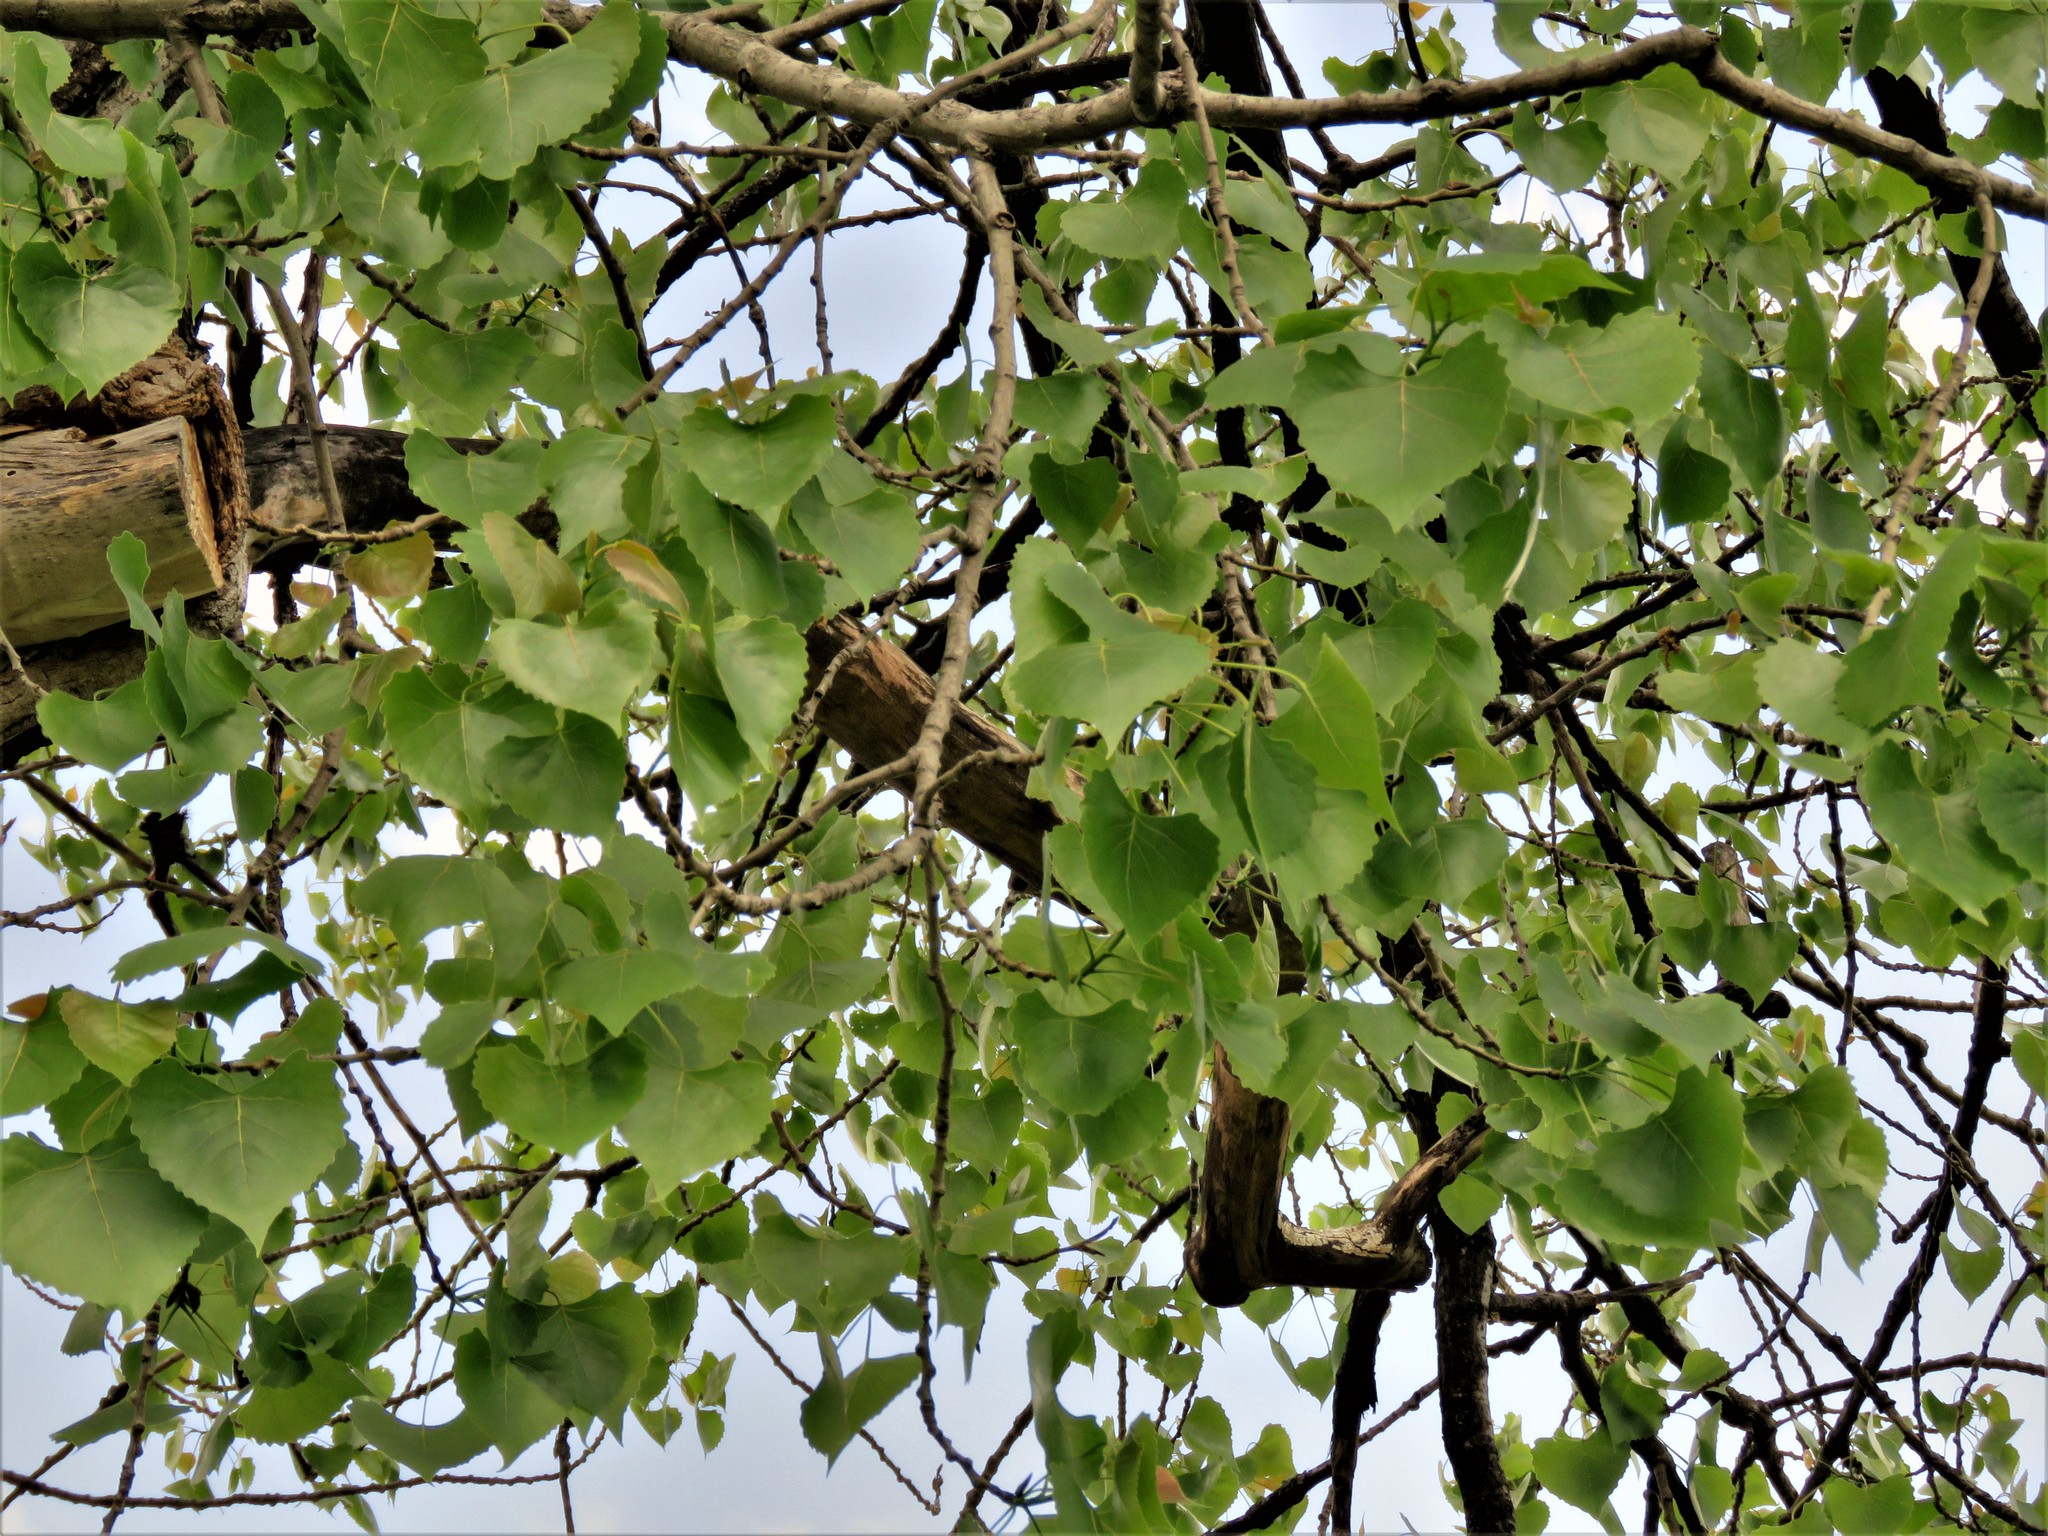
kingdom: Plantae
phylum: Tracheophyta
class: Magnoliopsida
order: Malpighiales
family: Salicaceae
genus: Populus
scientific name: Populus deltoides
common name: Eastern cottonwood
